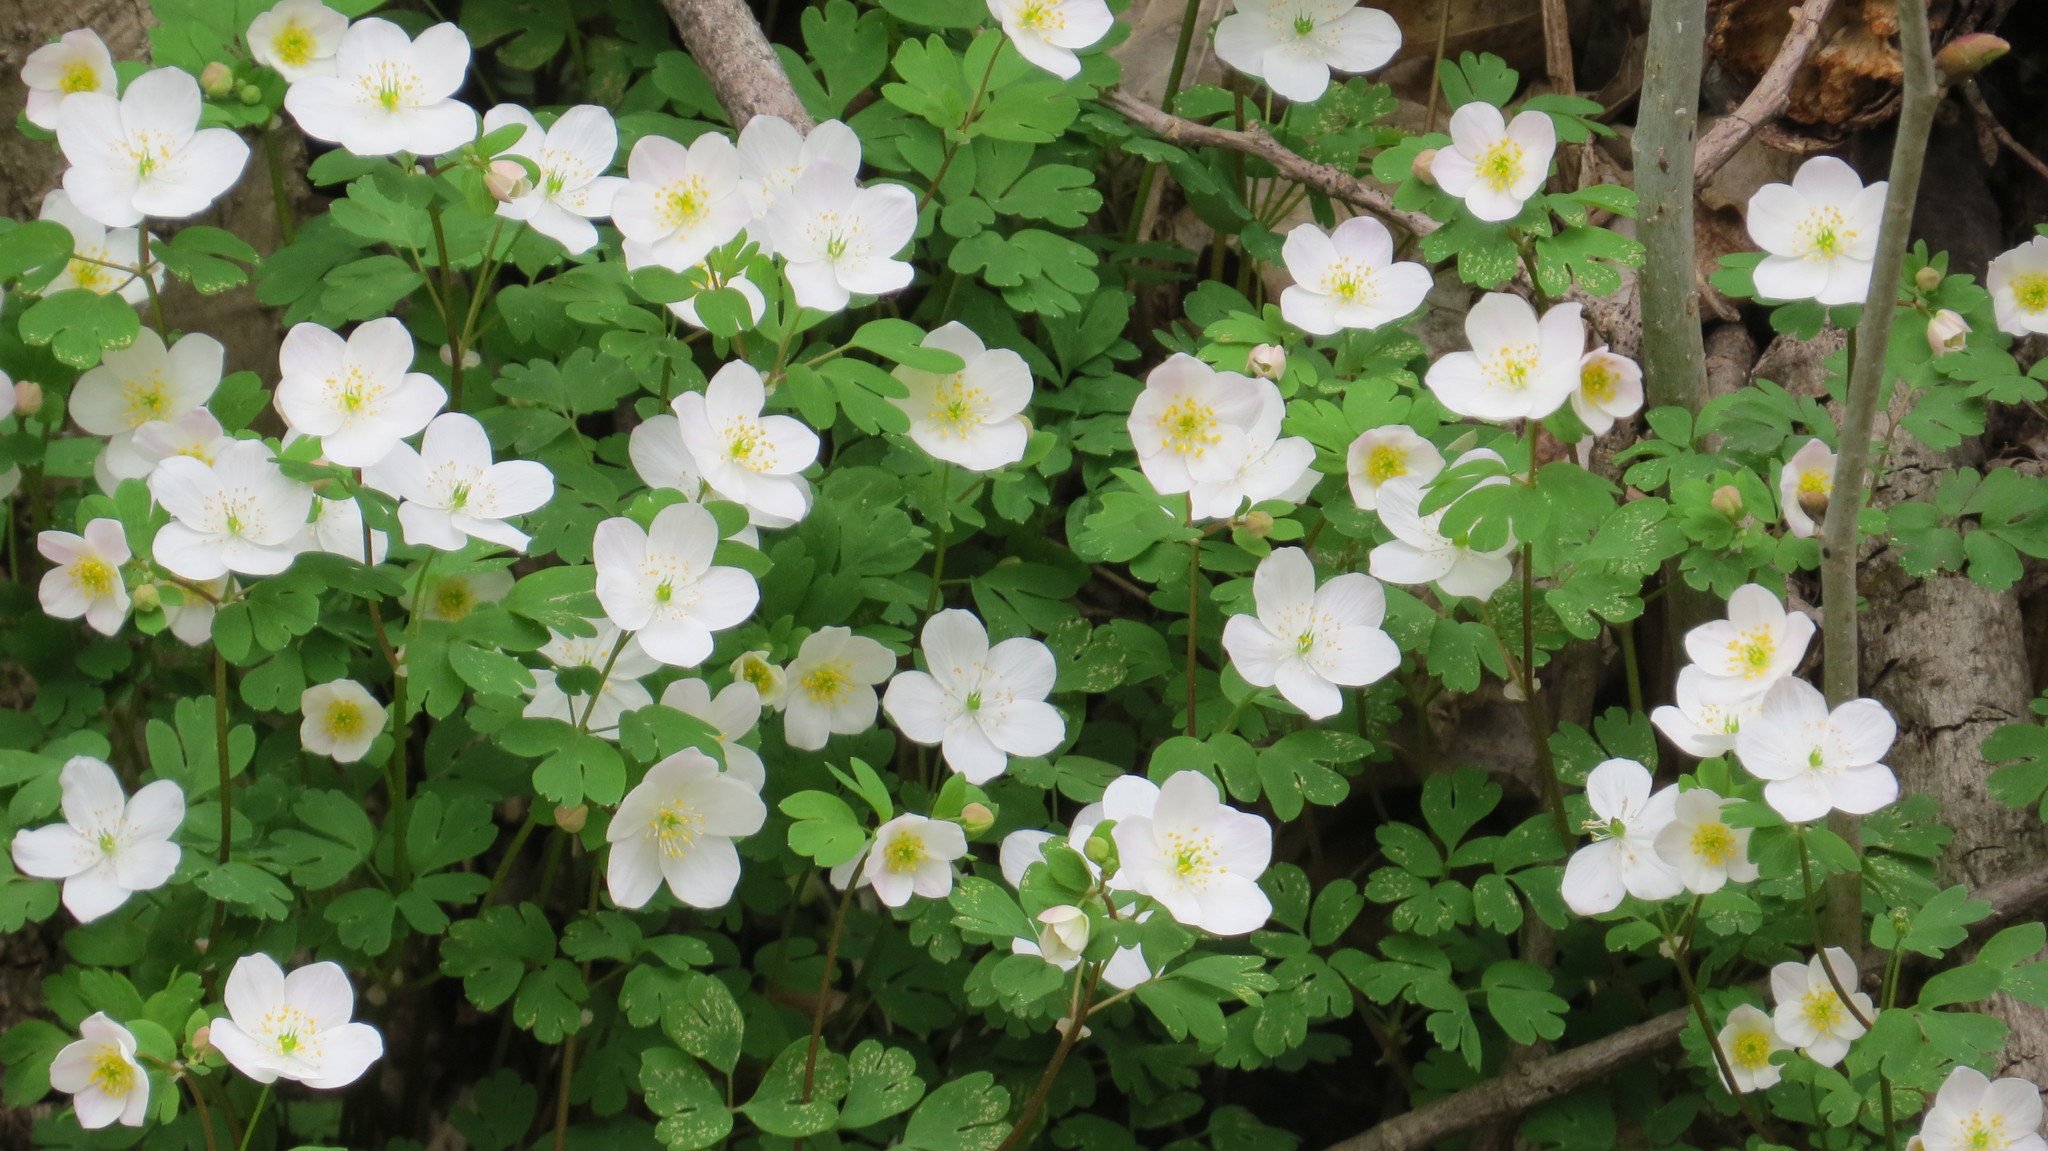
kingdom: Plantae
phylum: Tracheophyta
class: Magnoliopsida
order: Ranunculales
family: Ranunculaceae
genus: Enemion
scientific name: Enemion biternatum
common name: Eastern false rue-anemone
